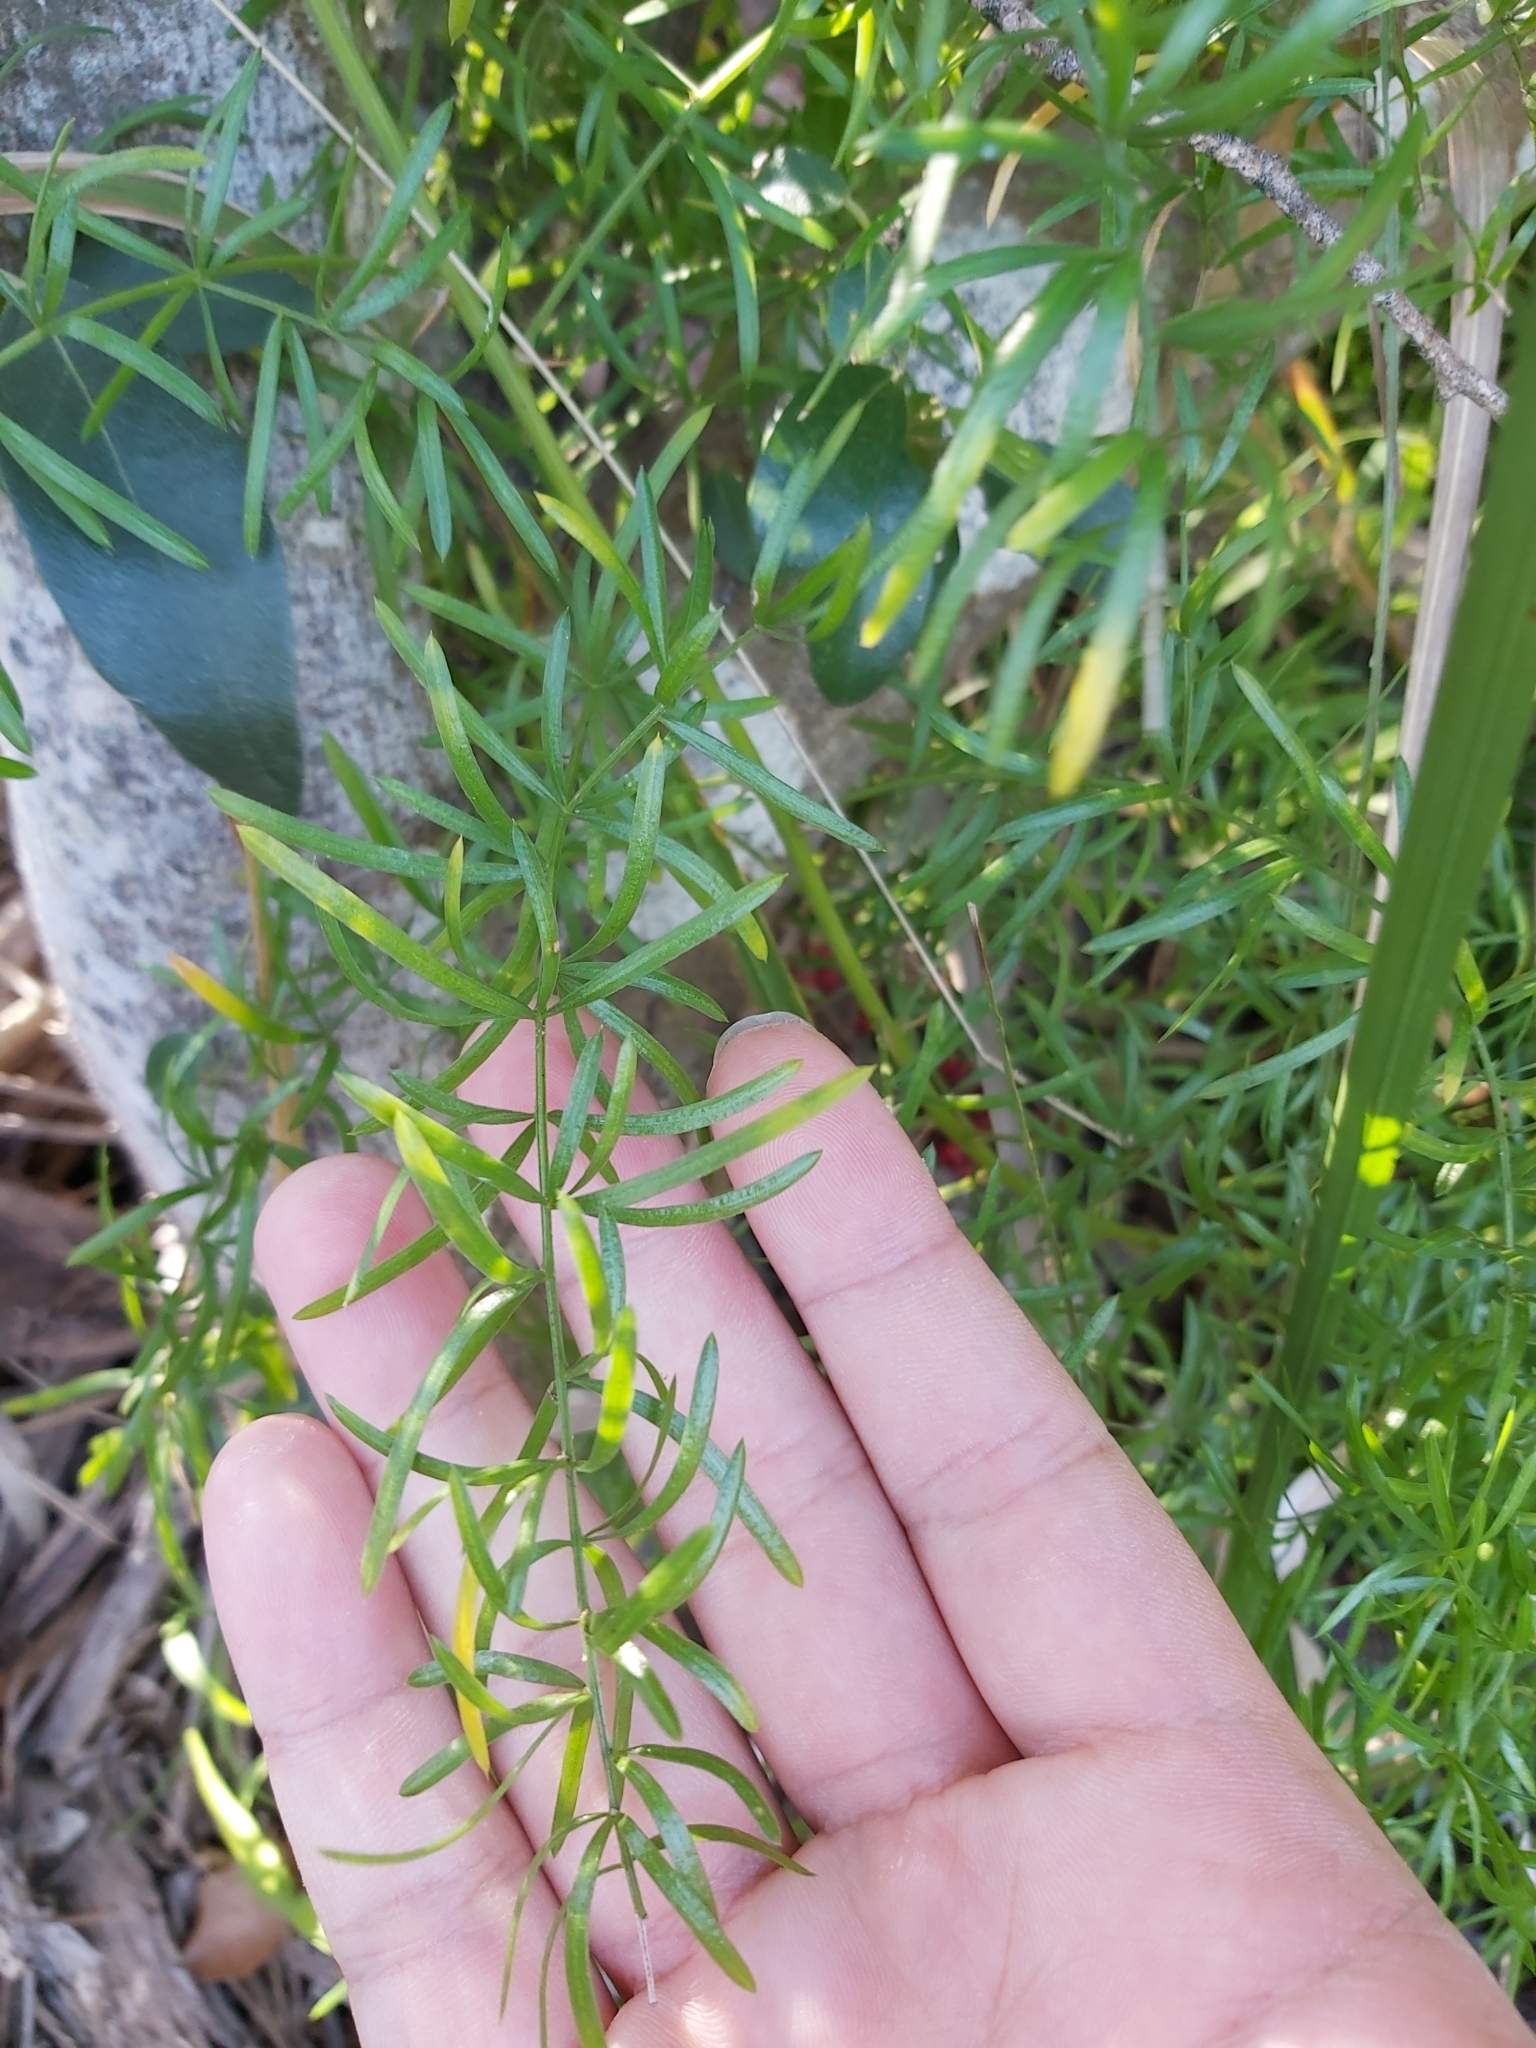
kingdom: Plantae
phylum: Tracheophyta
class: Liliopsida
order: Asparagales
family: Asparagaceae
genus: Asparagus
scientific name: Asparagus aethiopicus
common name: Sprenger's asparagus fern
